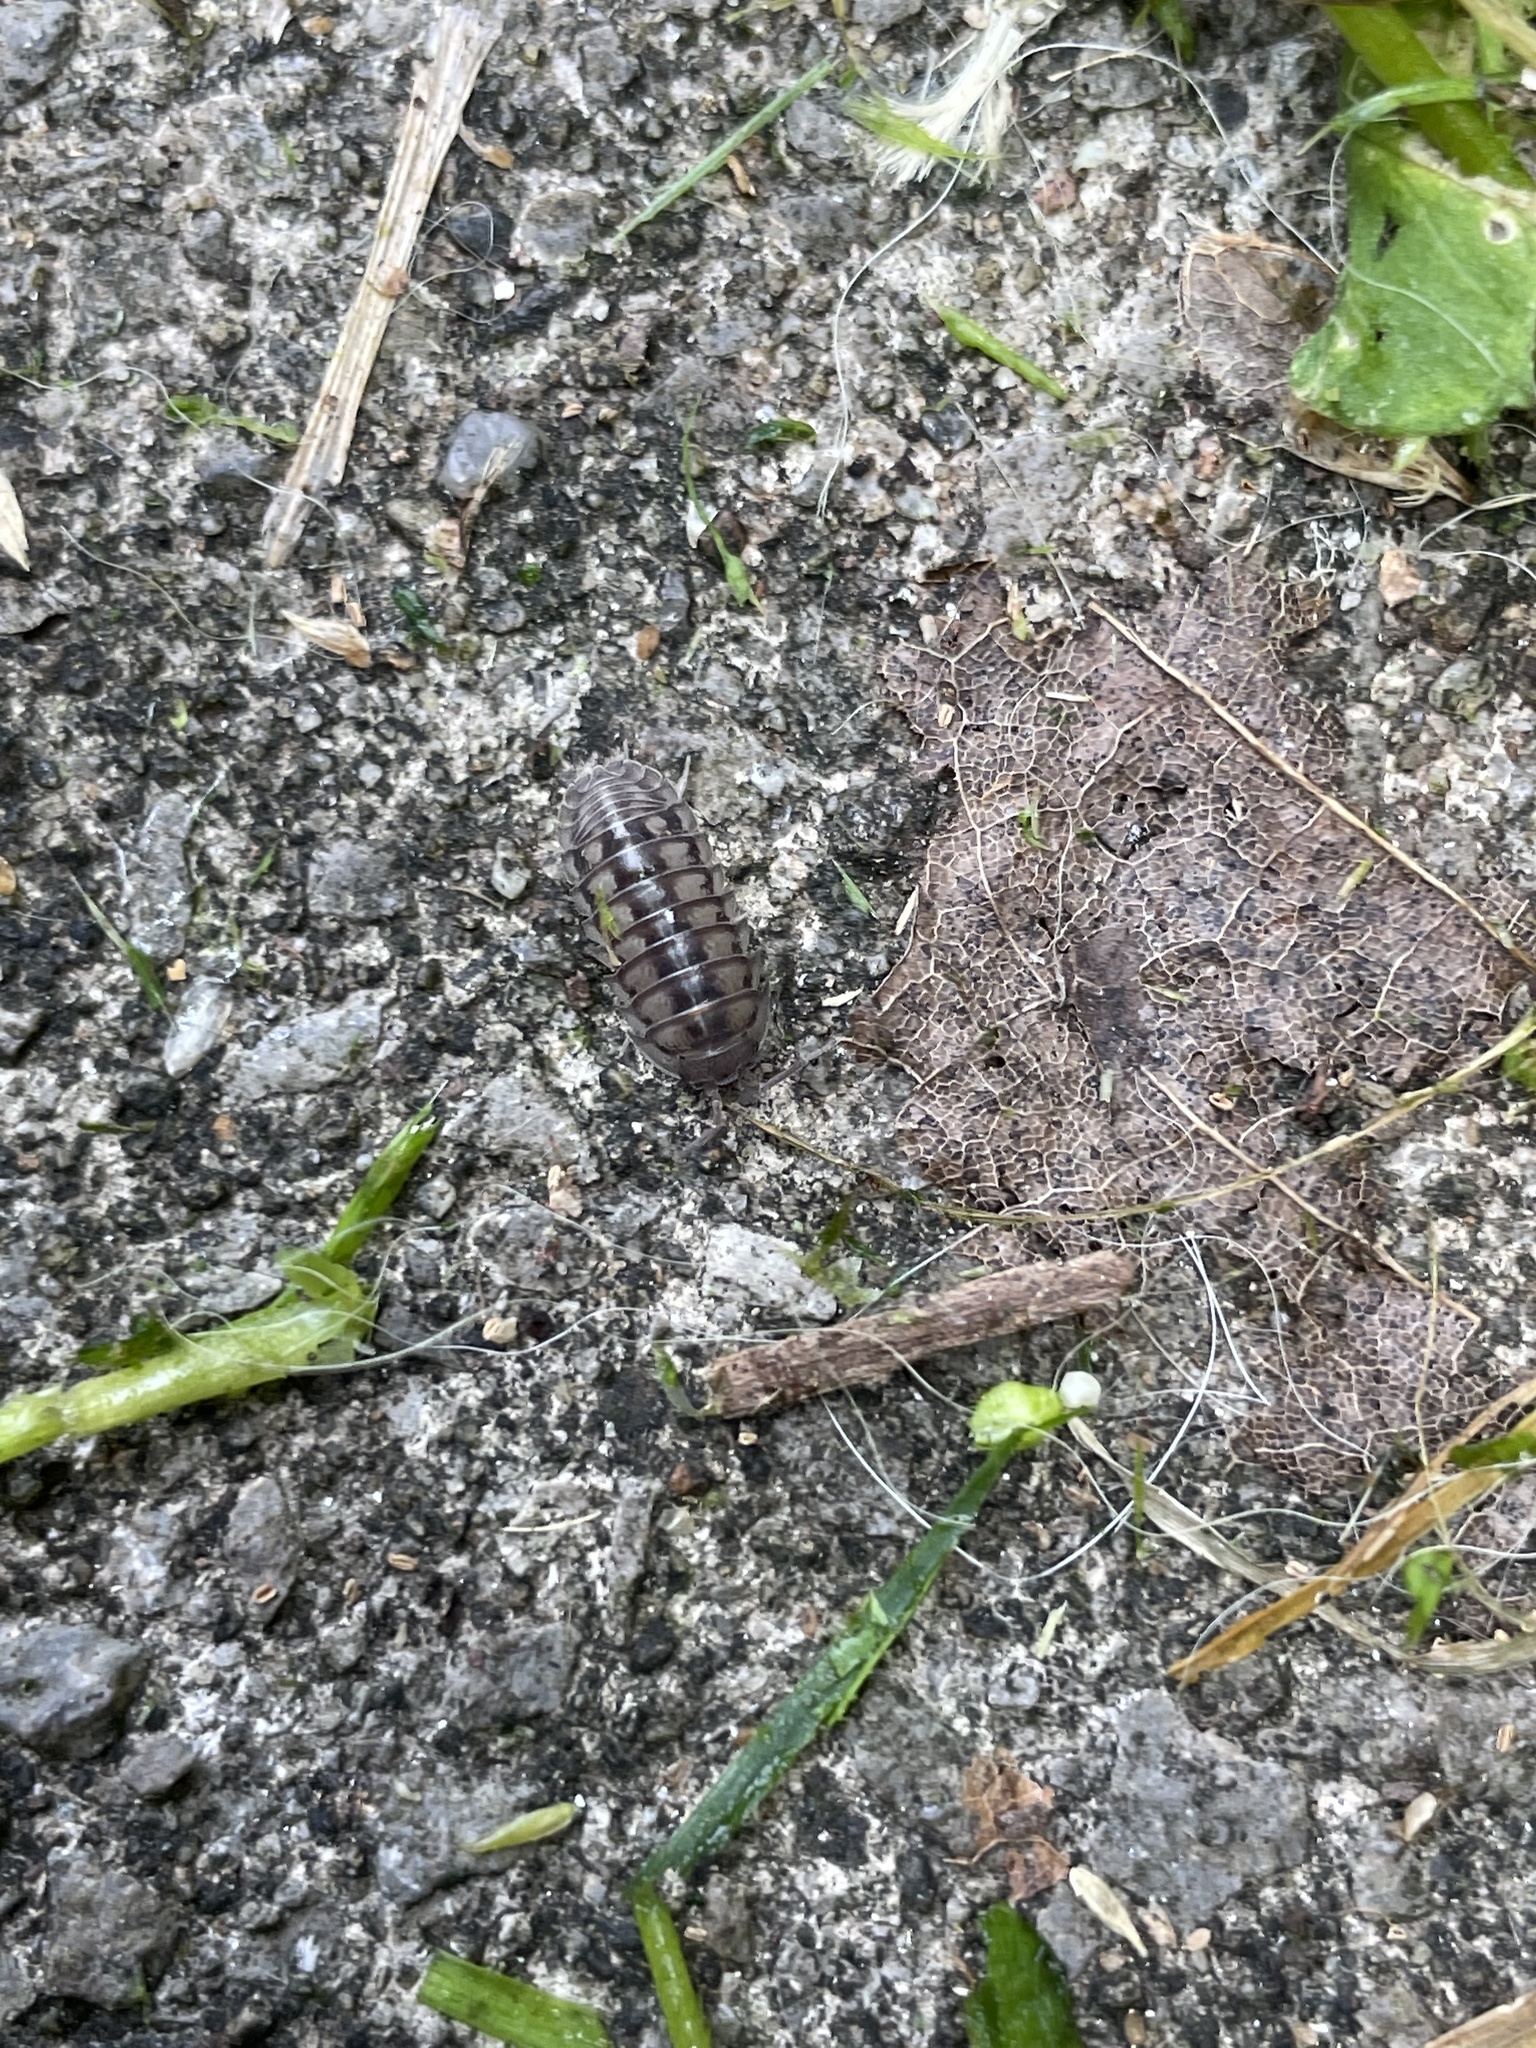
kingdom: Animalia
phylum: Arthropoda
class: Malacostraca
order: Isopoda
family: Armadillidiidae
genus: Armadillidium
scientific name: Armadillidium nasatum
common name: Isopod
